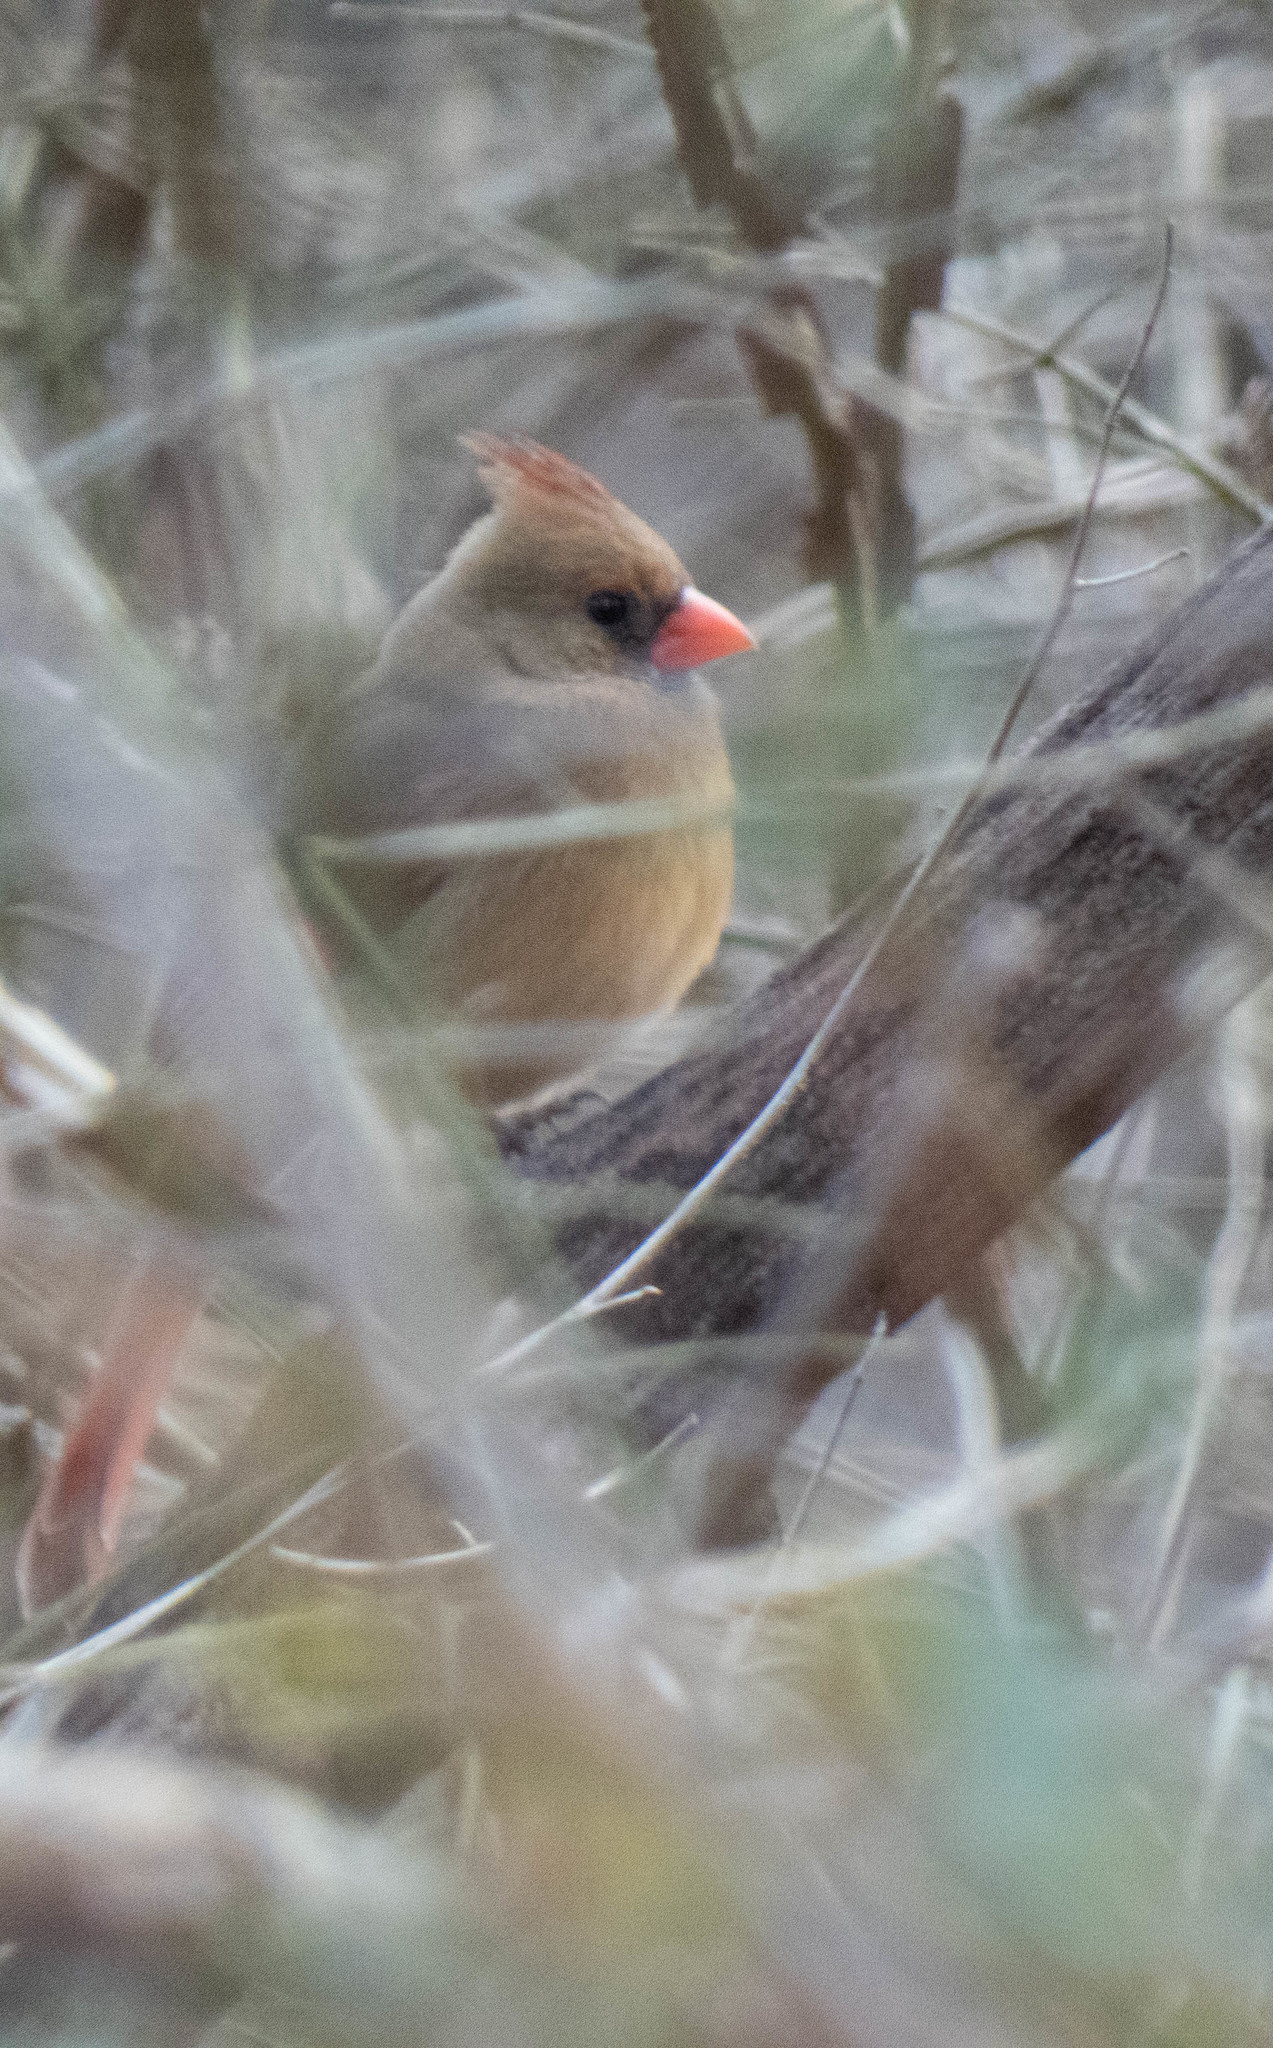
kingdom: Animalia
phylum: Chordata
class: Aves
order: Passeriformes
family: Cardinalidae
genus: Cardinalis
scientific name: Cardinalis cardinalis
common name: Northern cardinal
